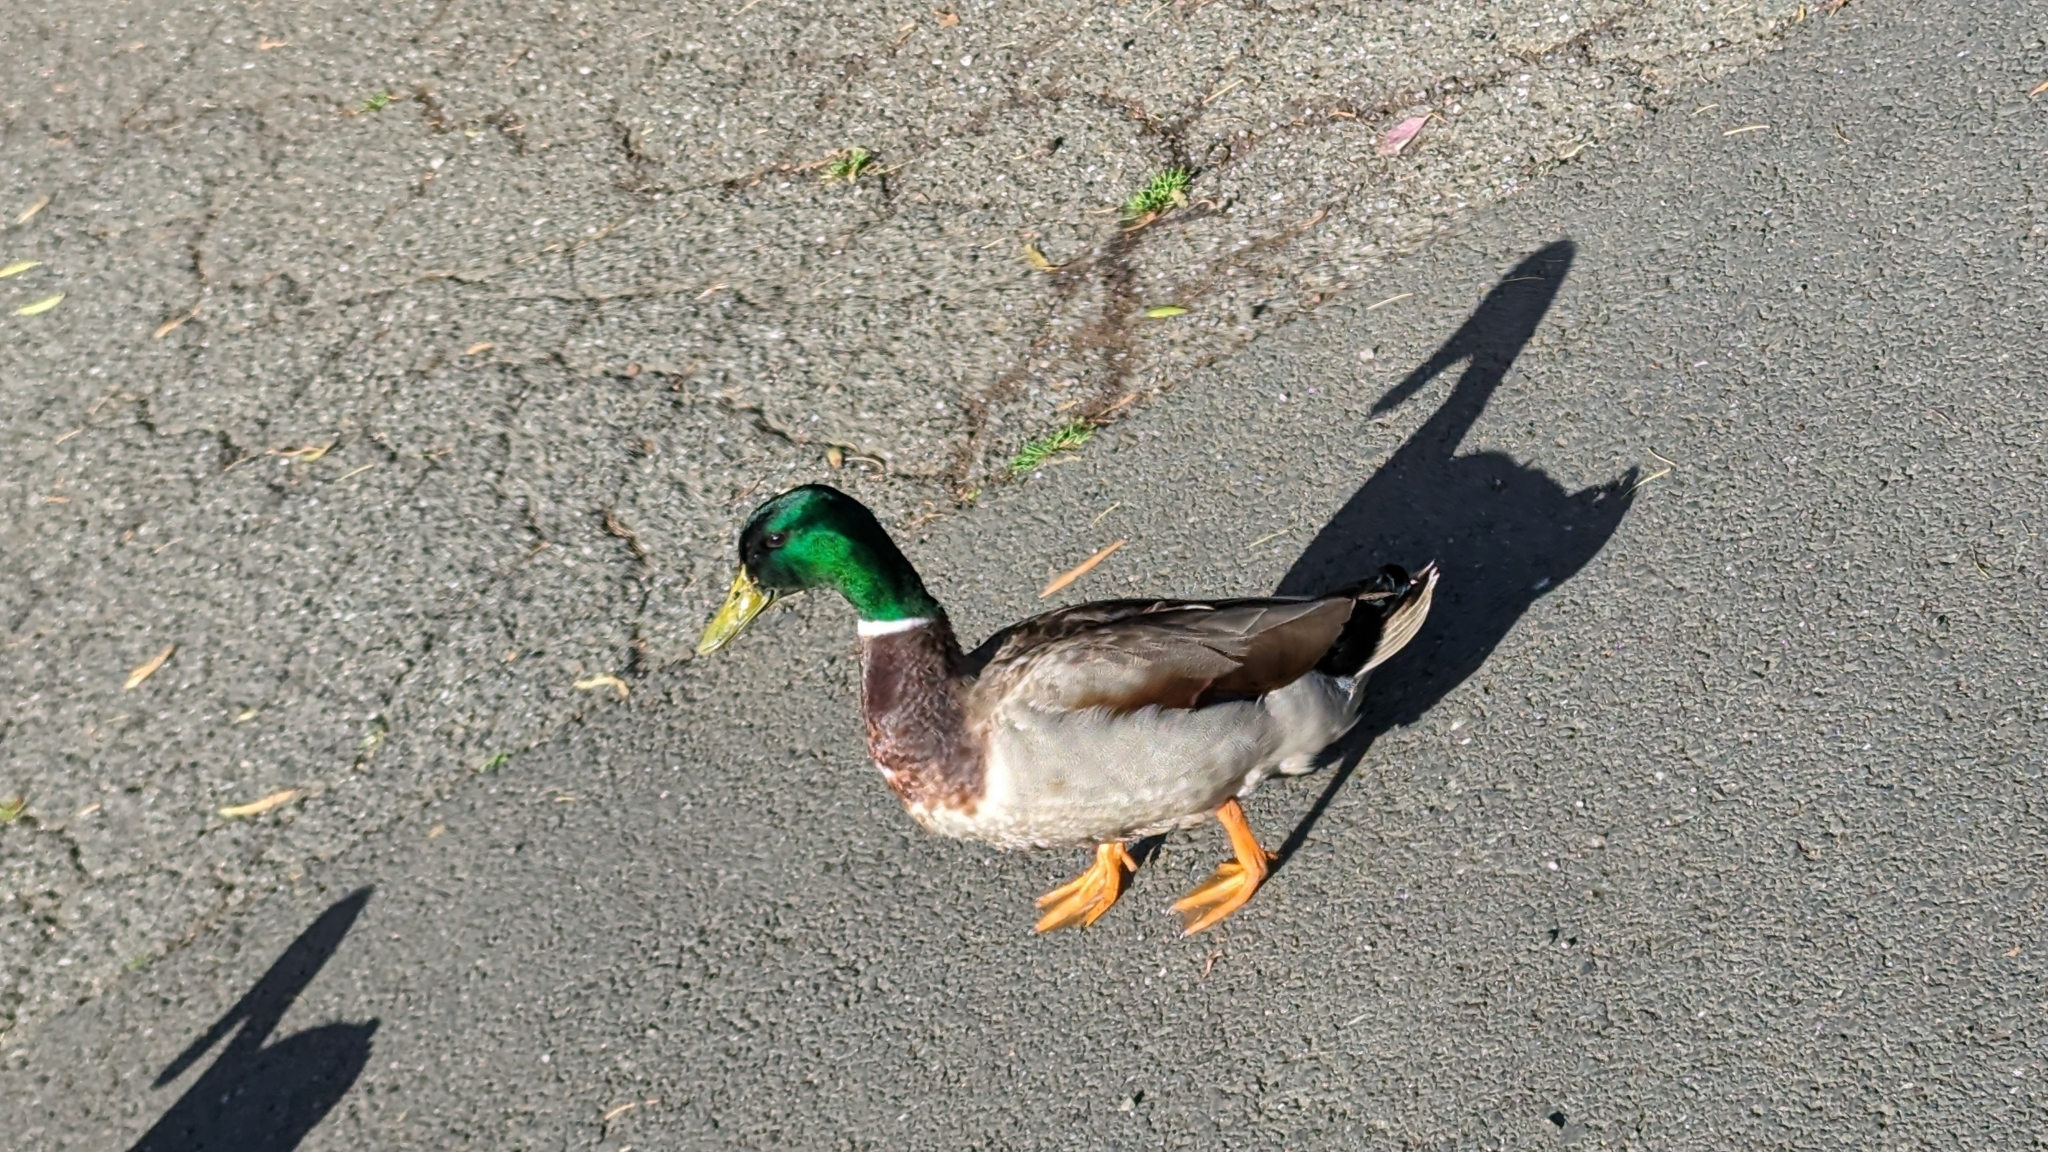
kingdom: Animalia
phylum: Chordata
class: Aves
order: Anseriformes
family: Anatidae
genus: Anas
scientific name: Anas platyrhynchos
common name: Mallard
